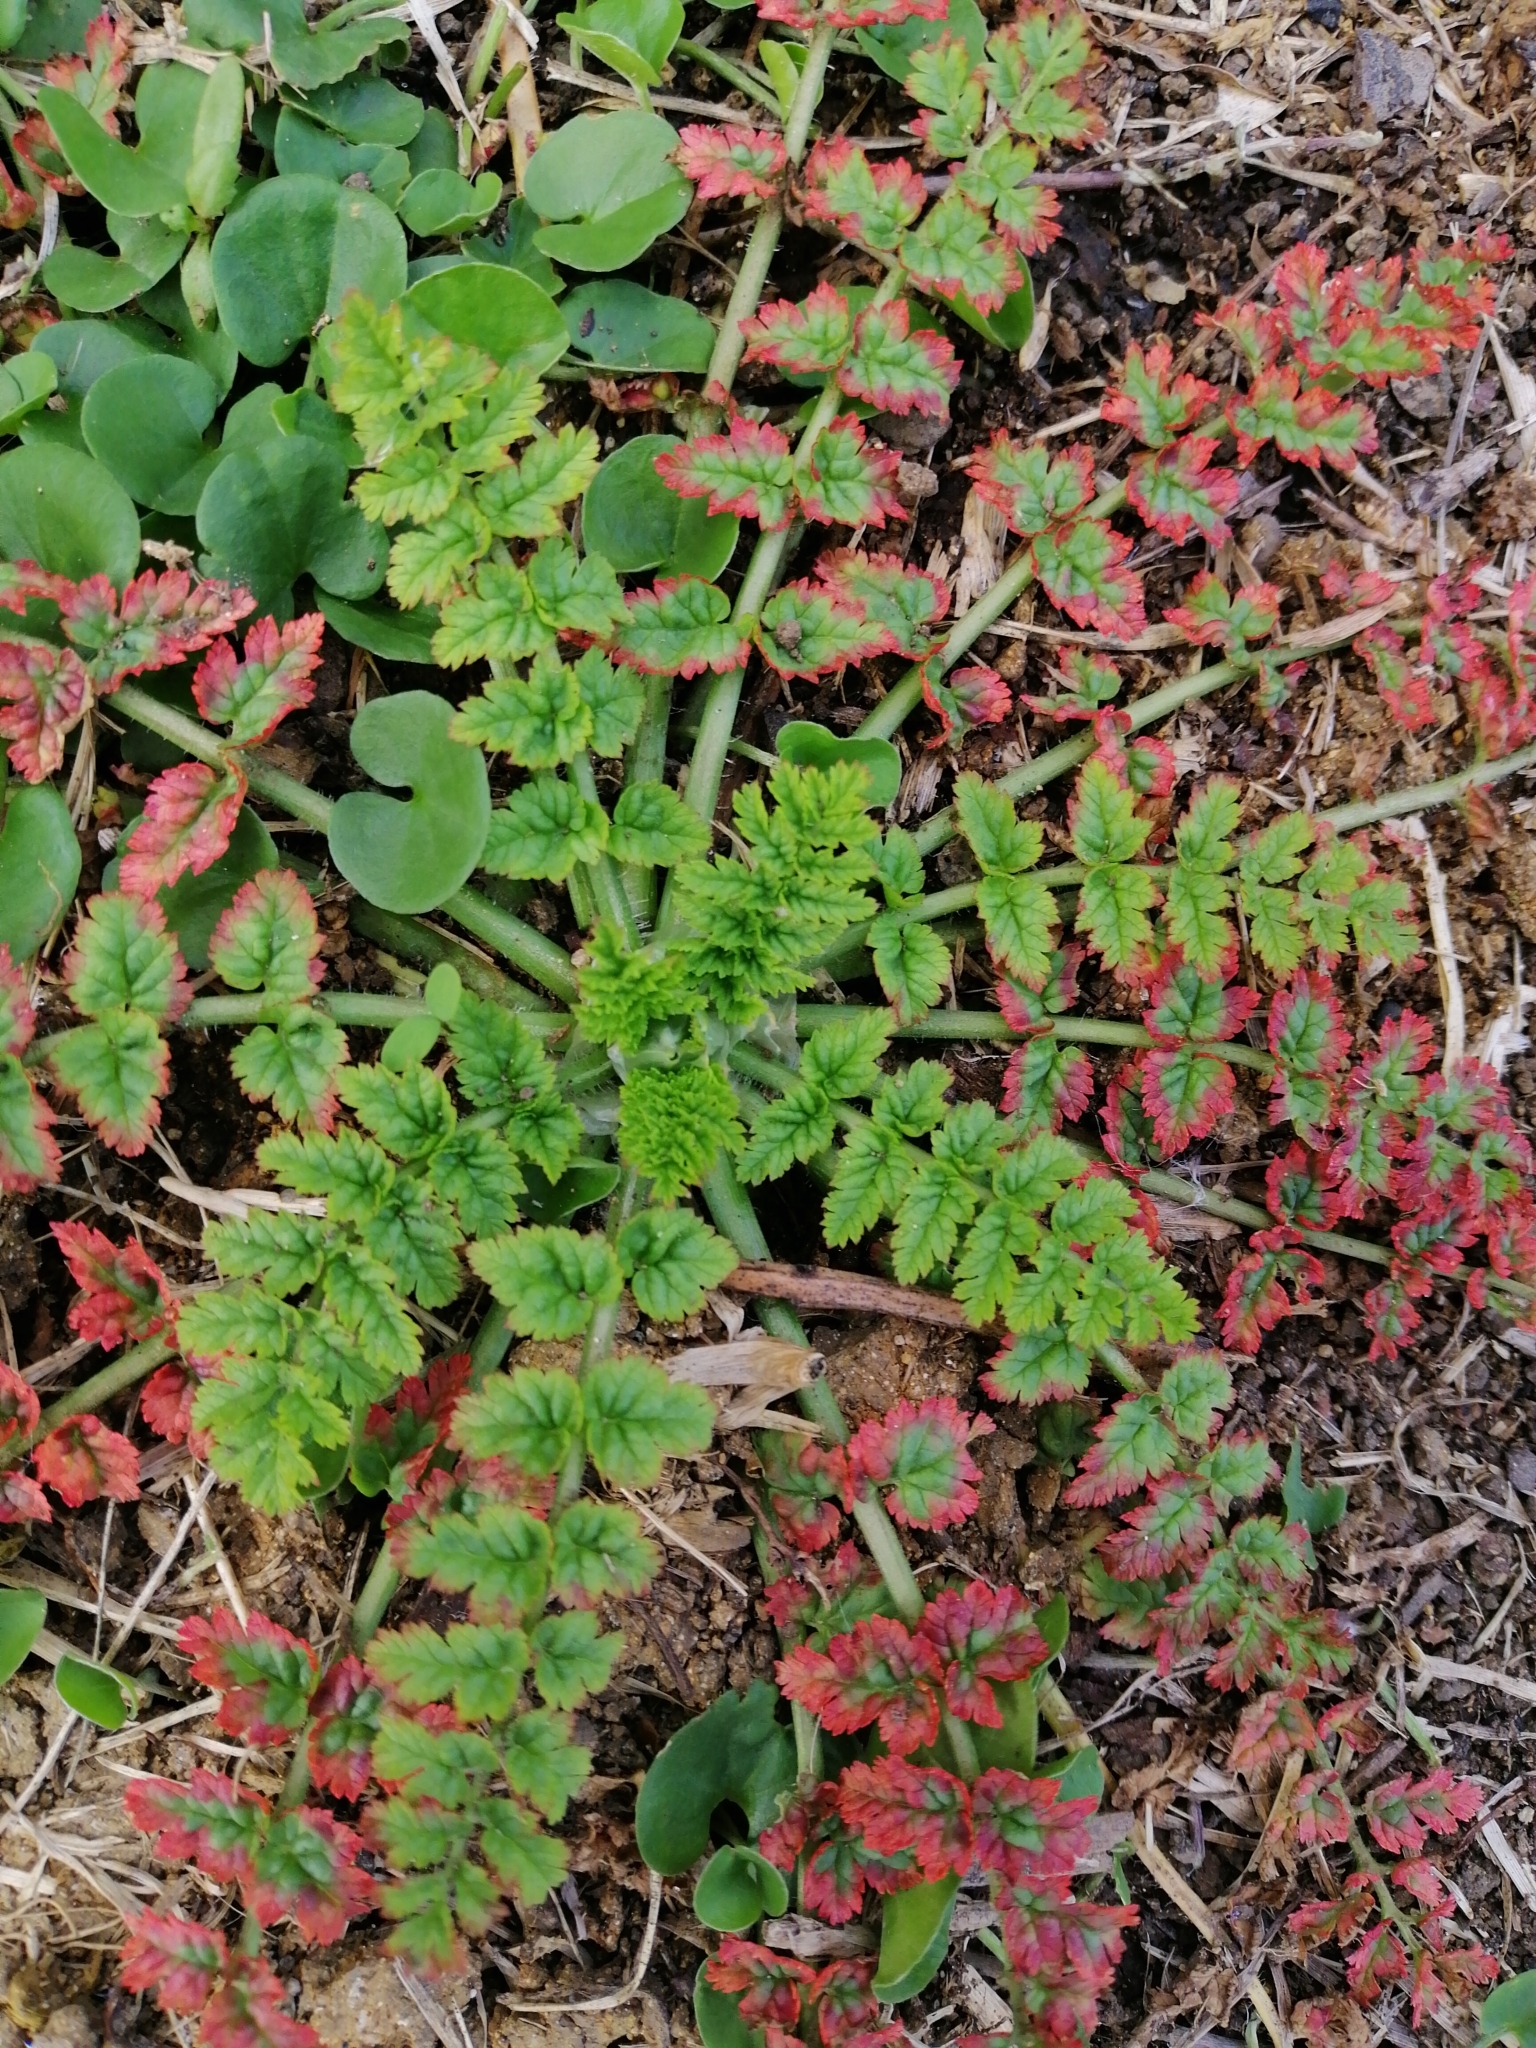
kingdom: Plantae
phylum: Tracheophyta
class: Magnoliopsida
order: Geraniales
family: Geraniaceae
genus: Erodium
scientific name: Erodium moschatum
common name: Musk stork's-bill
